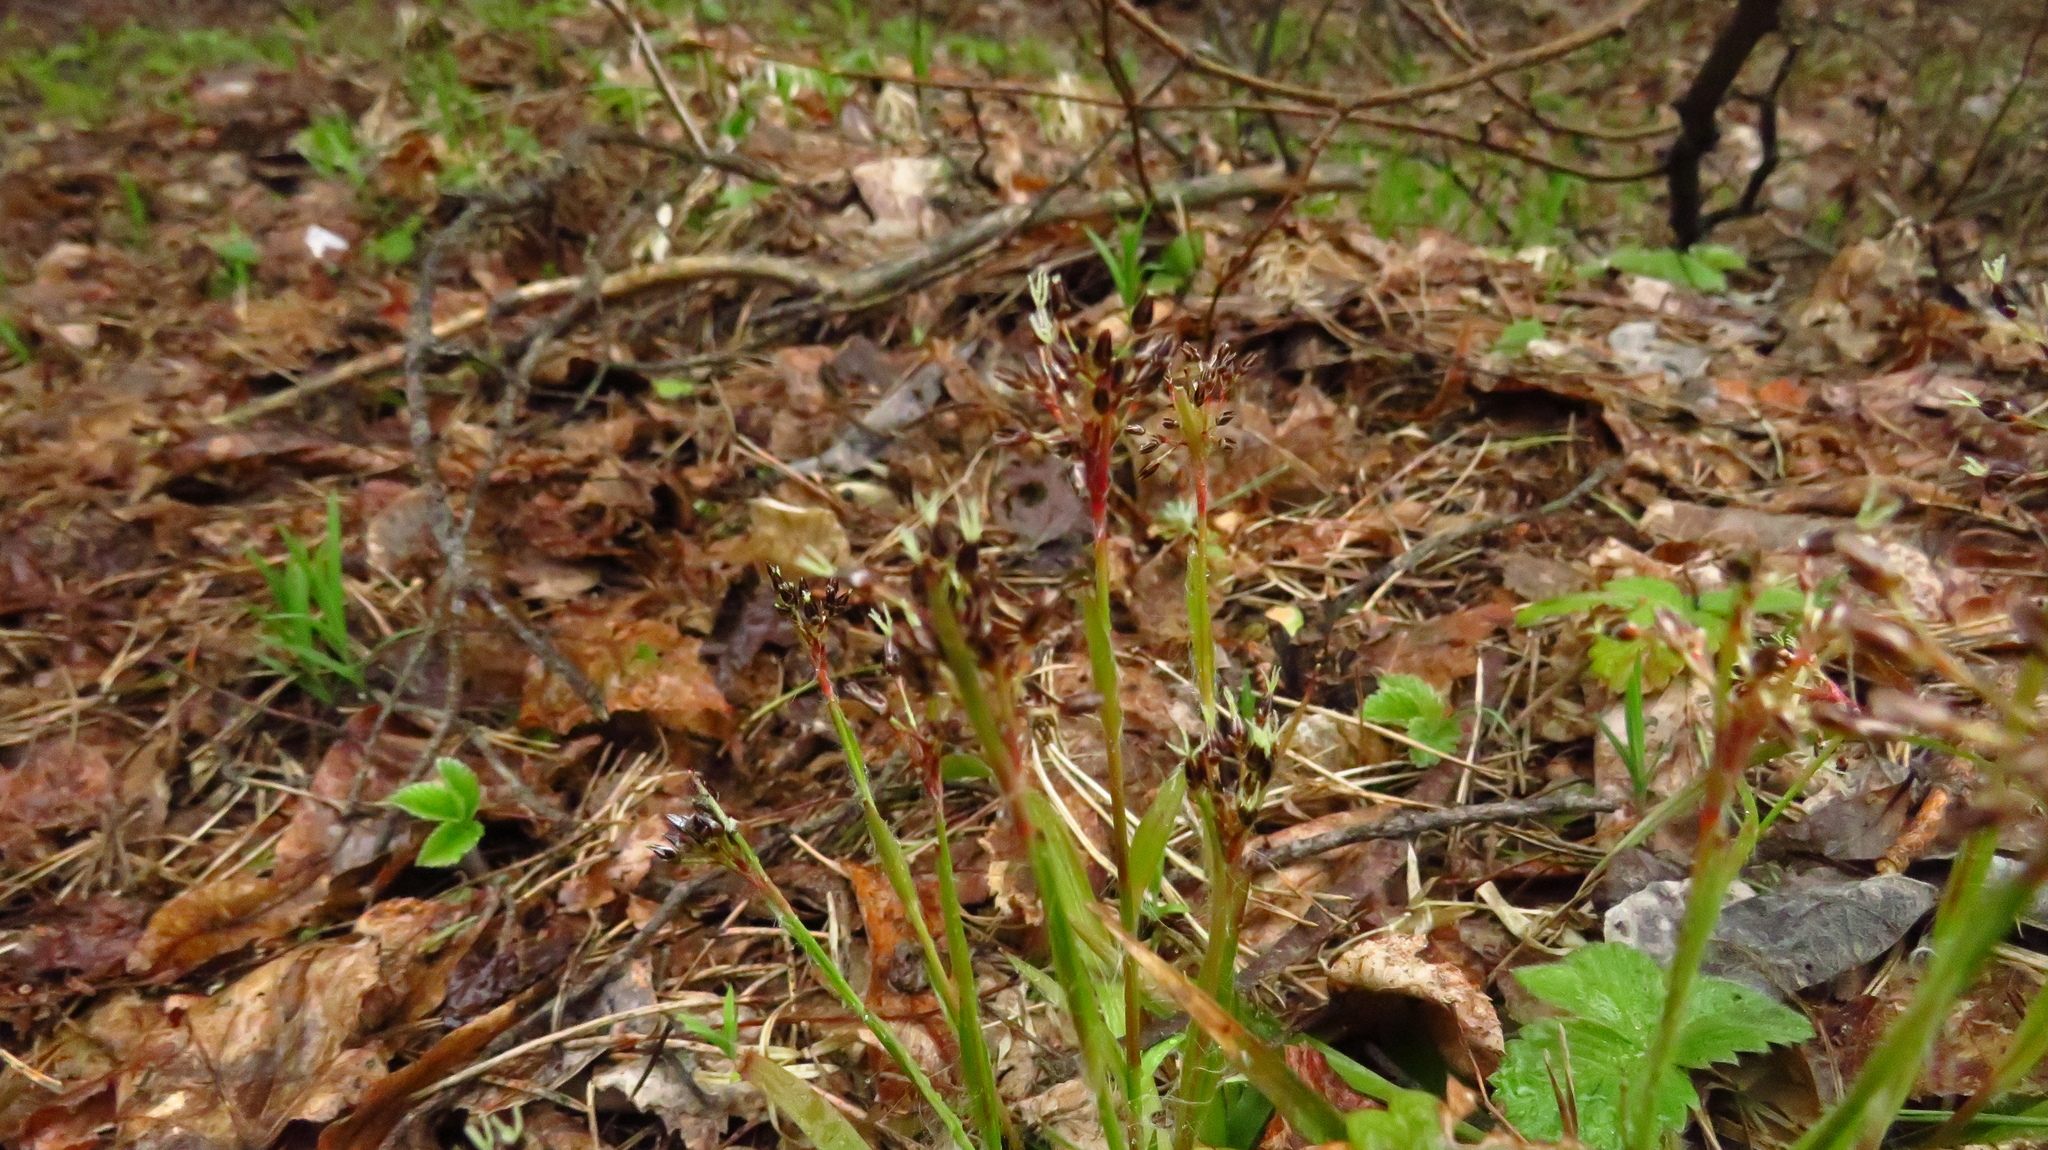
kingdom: Plantae
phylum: Tracheophyta
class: Liliopsida
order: Poales
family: Juncaceae
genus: Luzula
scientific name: Luzula pilosa
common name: Hairy wood-rush
